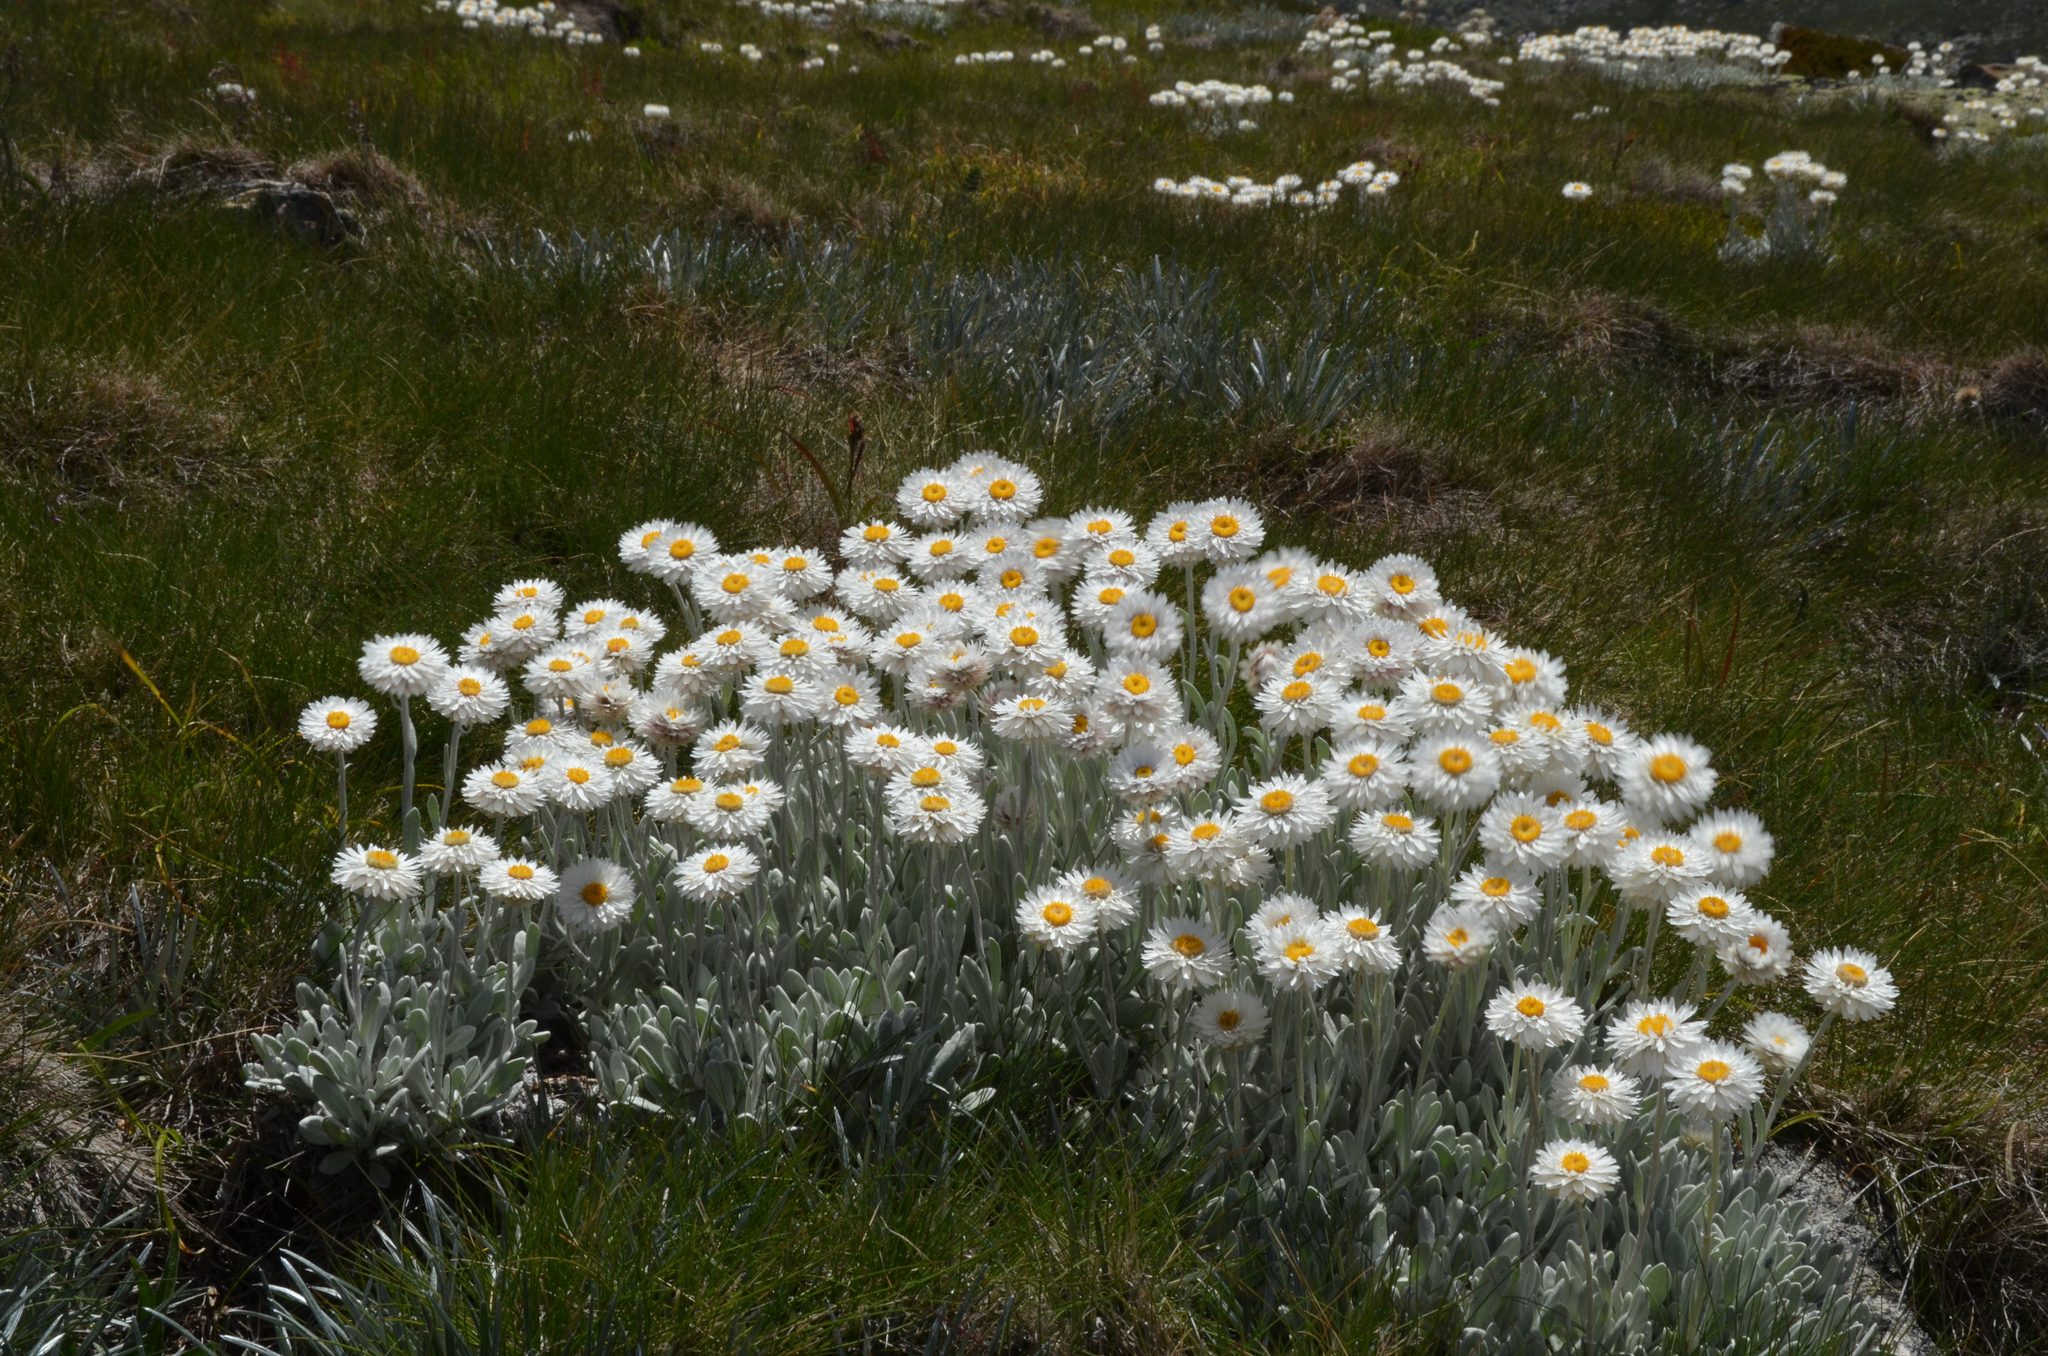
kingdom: Plantae
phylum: Tracheophyta
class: Magnoliopsida
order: Asterales
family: Asteraceae
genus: Leucochrysum
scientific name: Leucochrysum alpinum
